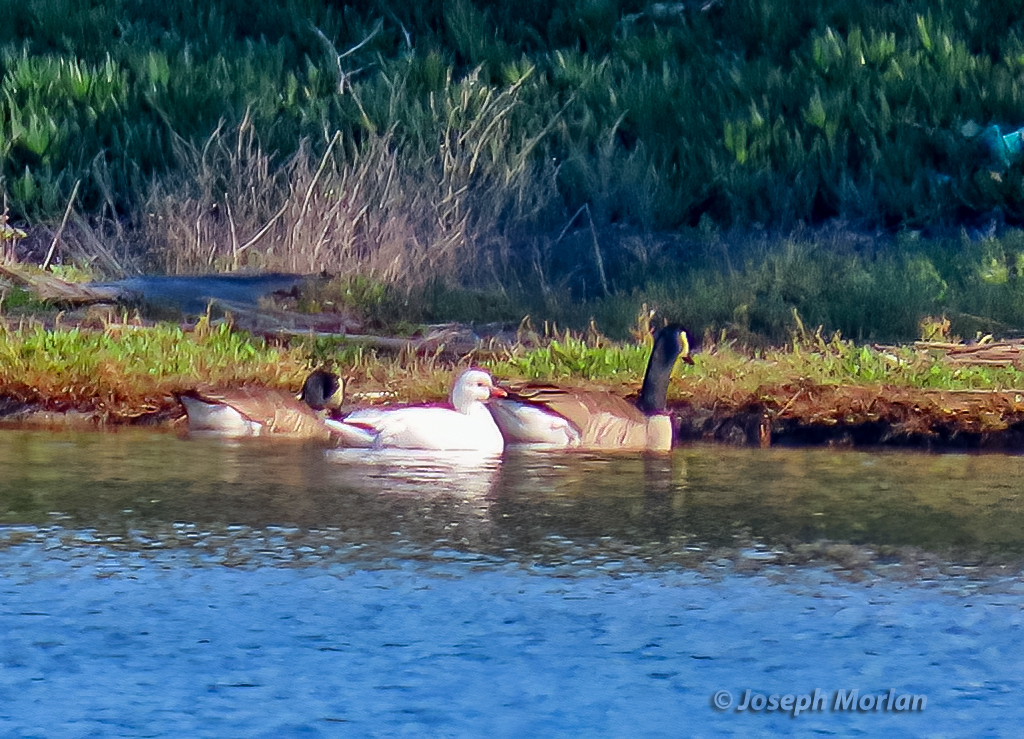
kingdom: Animalia
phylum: Chordata
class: Aves
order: Anseriformes
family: Anatidae
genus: Anser
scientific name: Anser rossii
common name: Ross's goose
